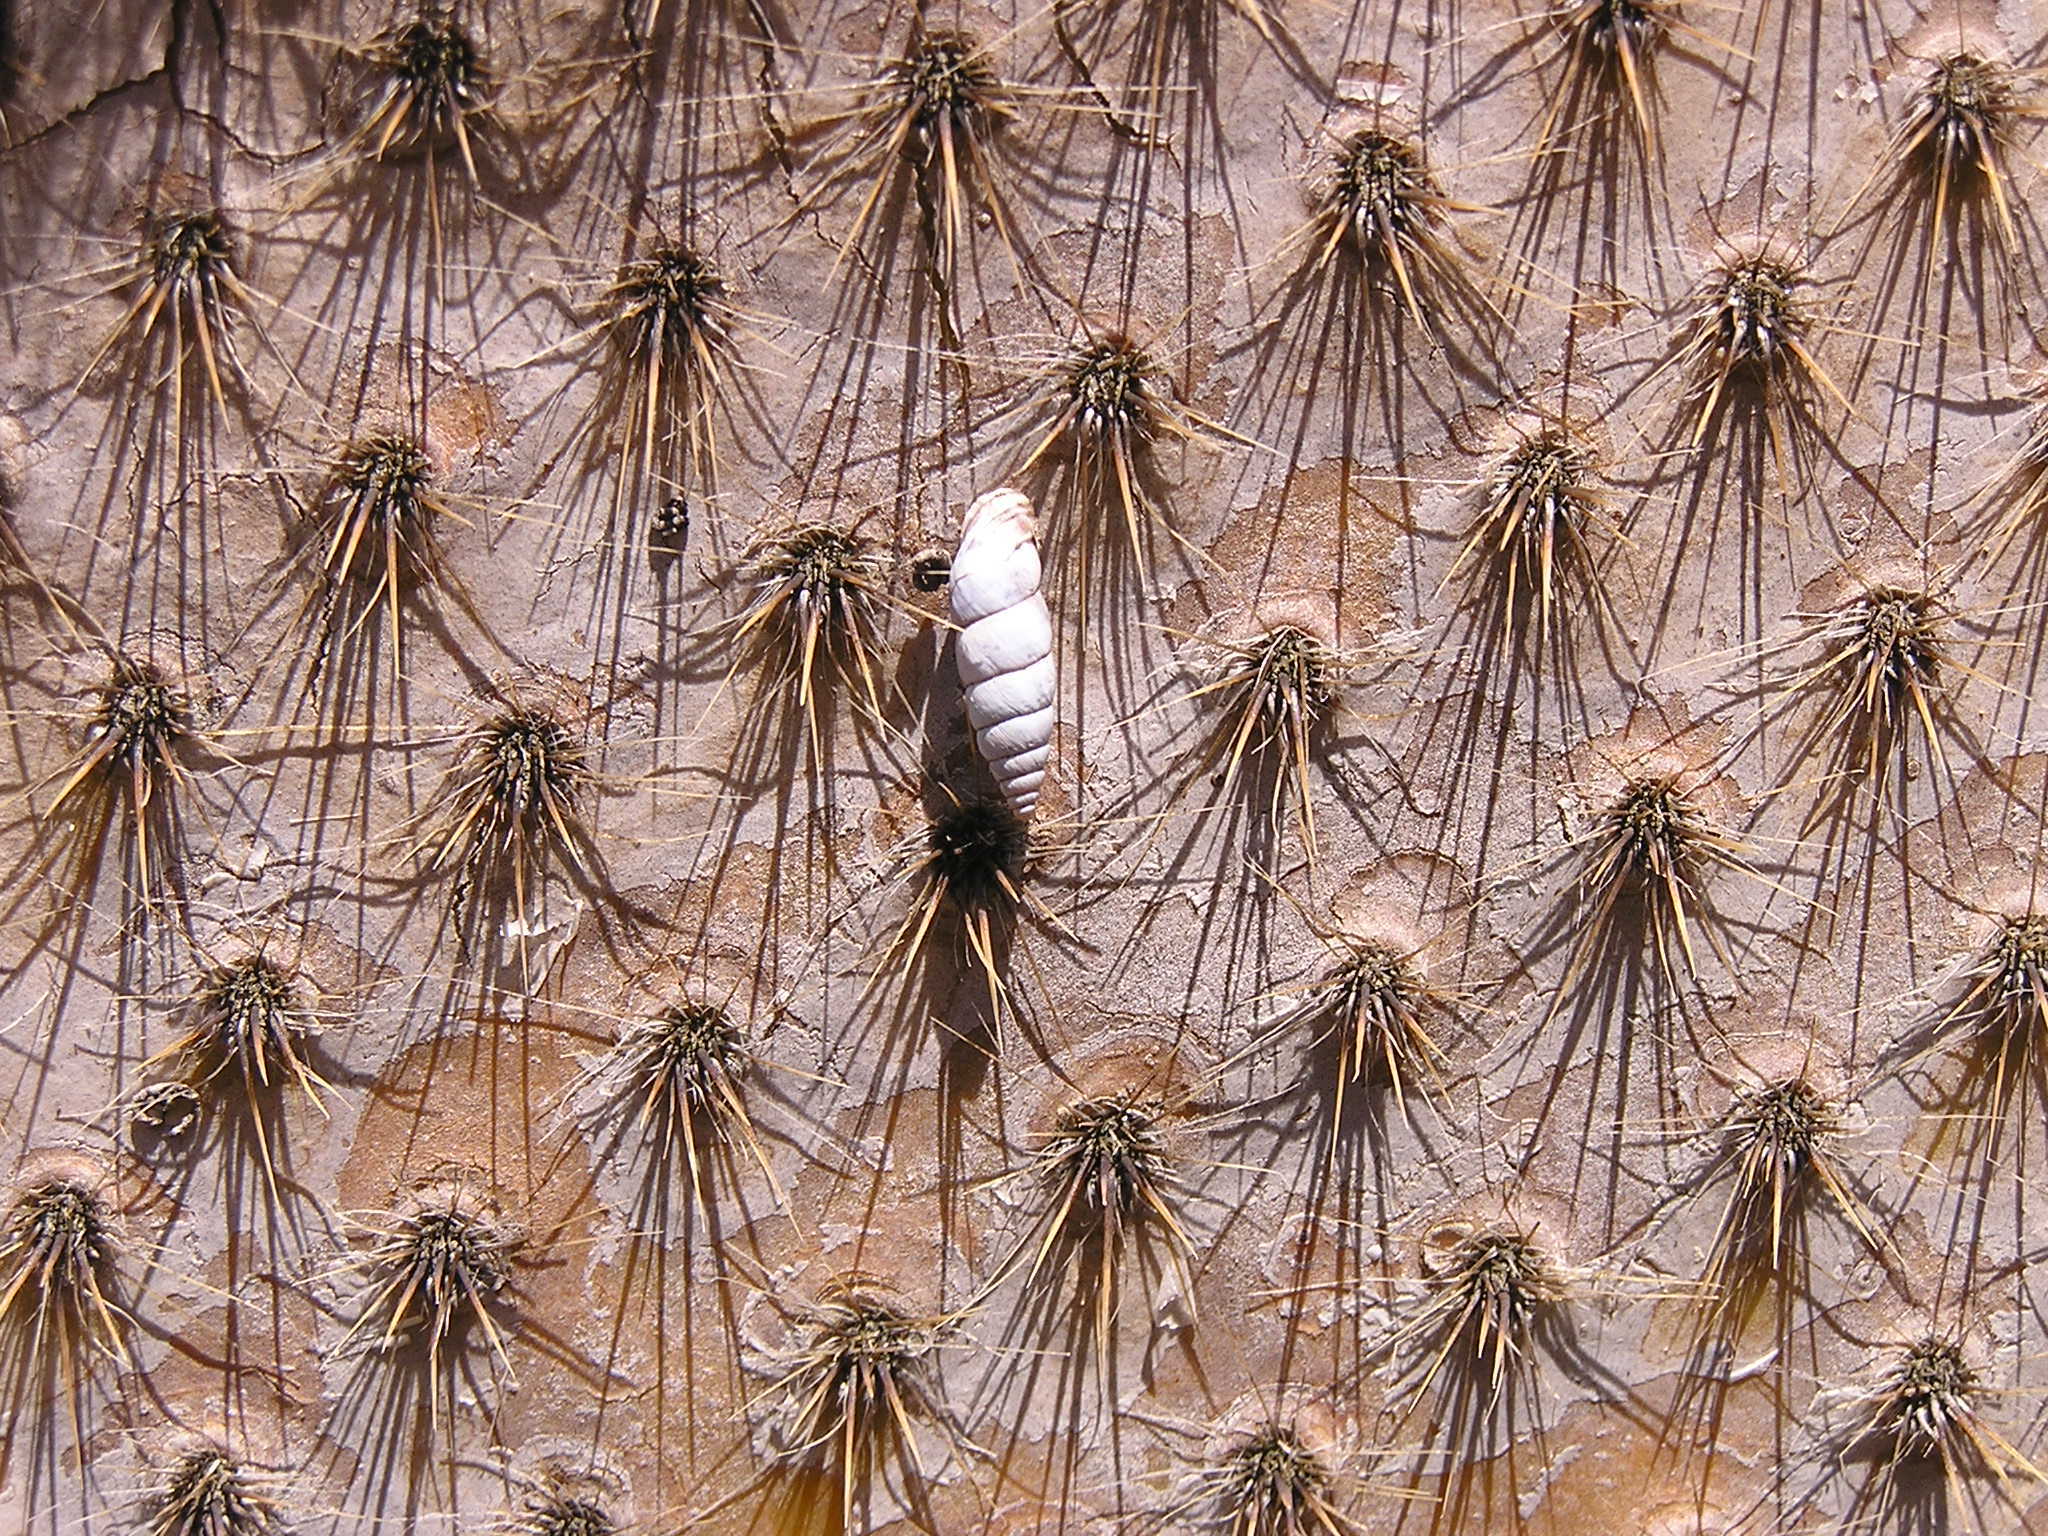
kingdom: Animalia
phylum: Mollusca
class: Gastropoda
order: Stylommatophora
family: Chondrinidae
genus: Solatopupa
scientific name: Solatopupa similis
